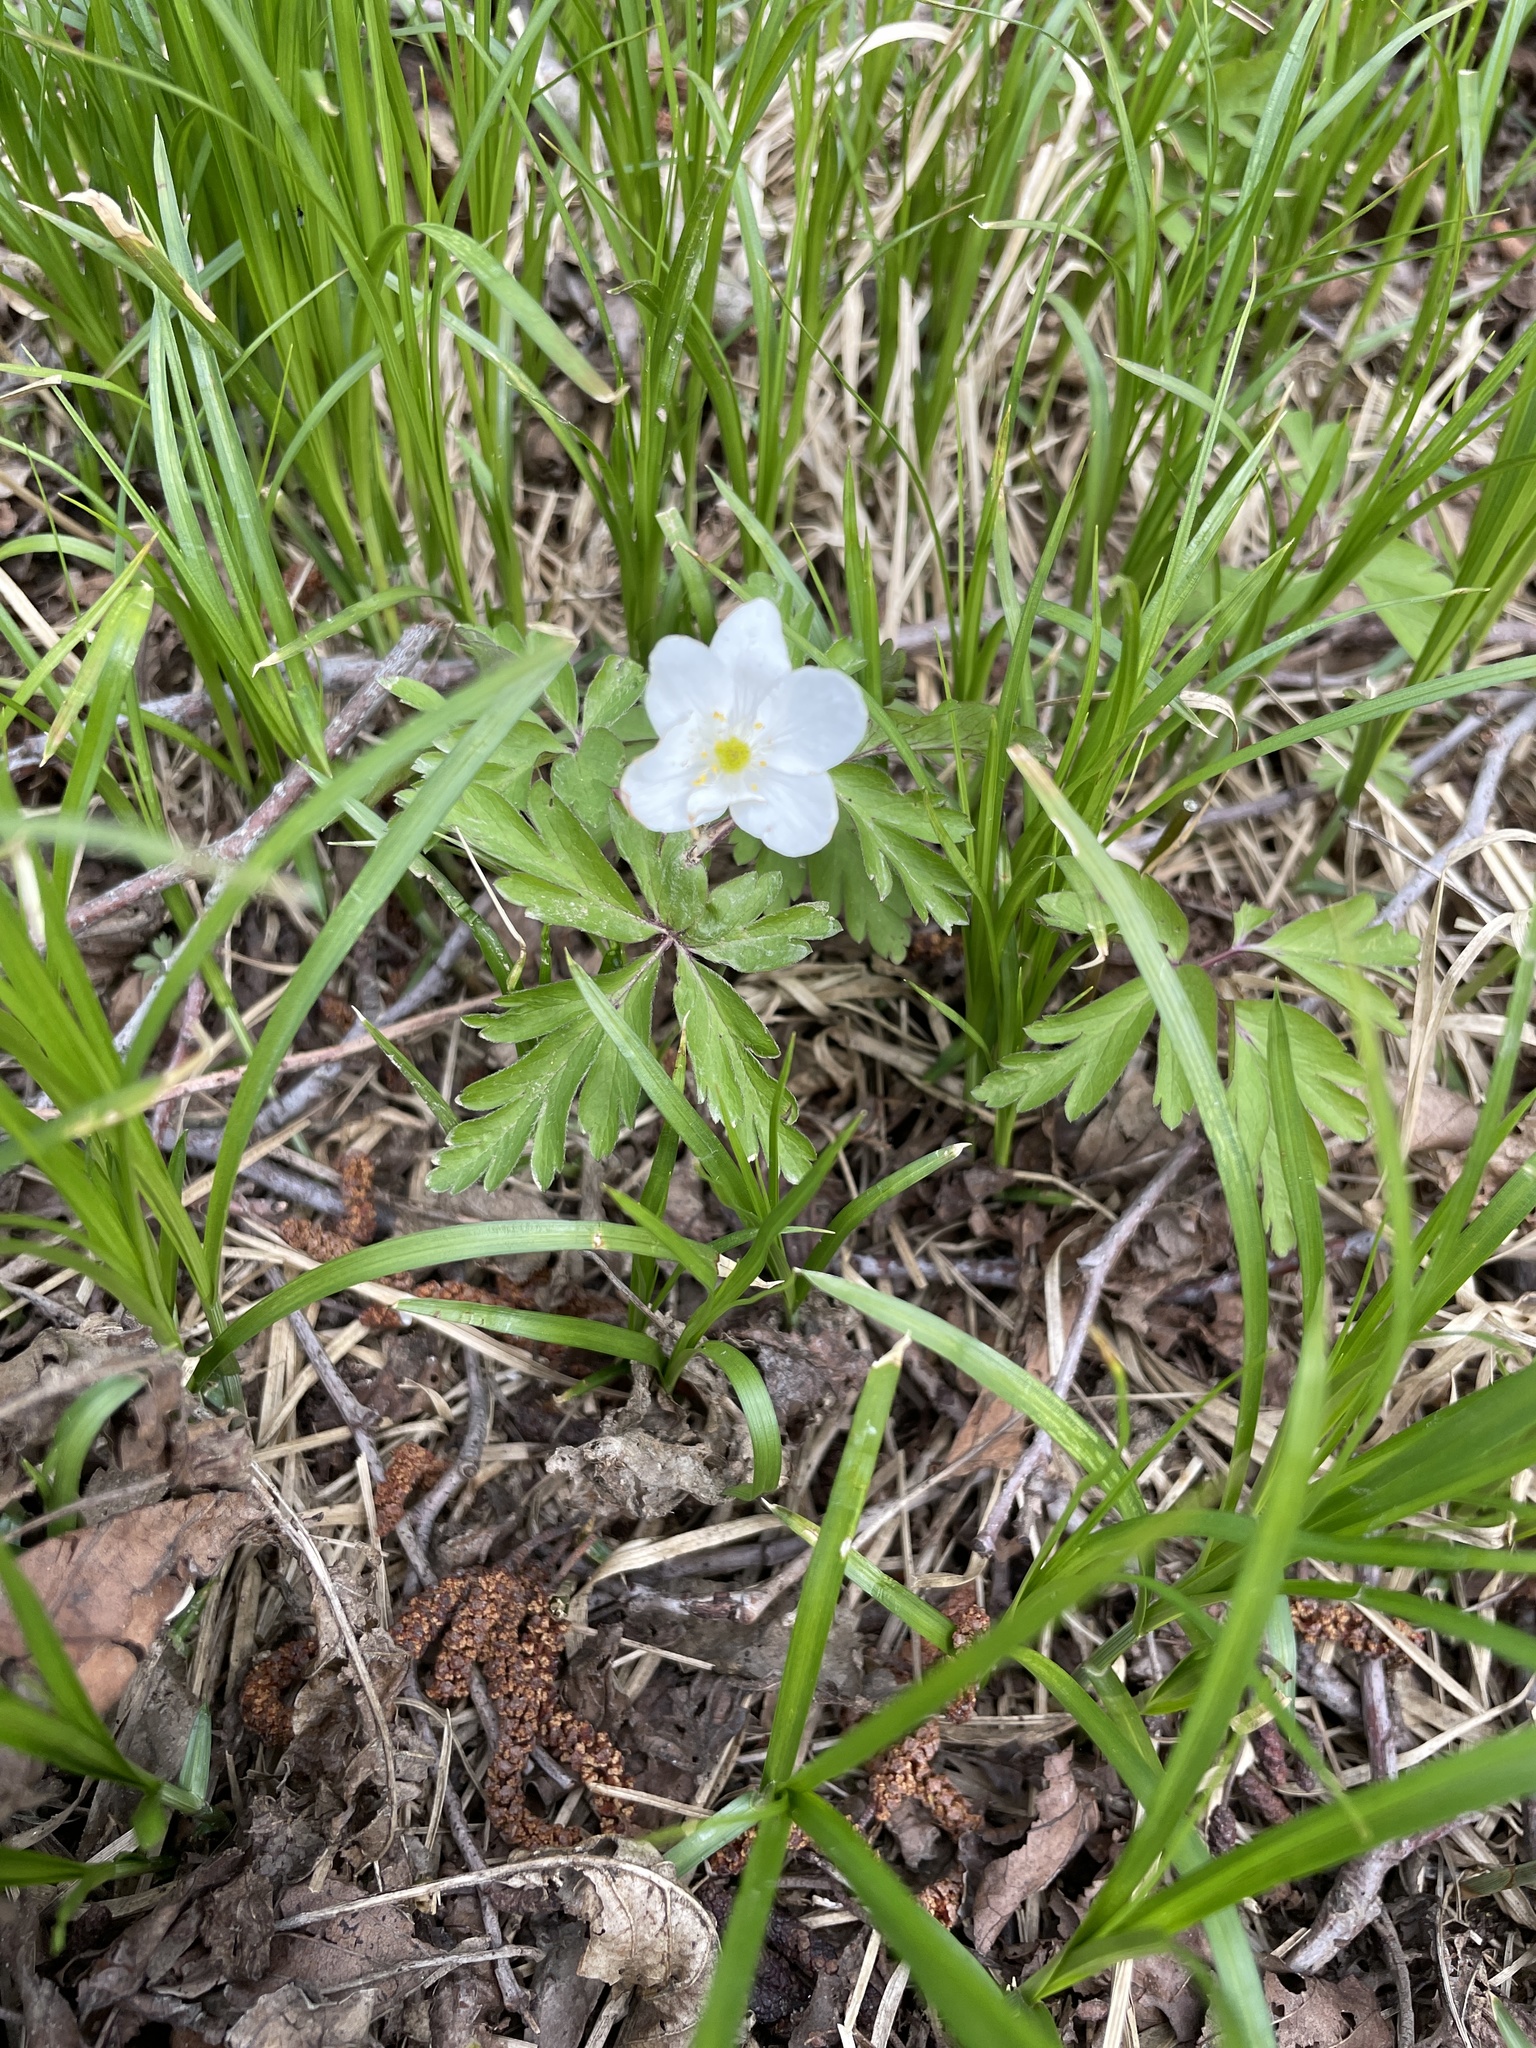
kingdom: Plantae
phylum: Tracheophyta
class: Magnoliopsida
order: Ranunculales
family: Ranunculaceae
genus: Anemone
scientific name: Anemone nemorosa
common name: Wood anemone
